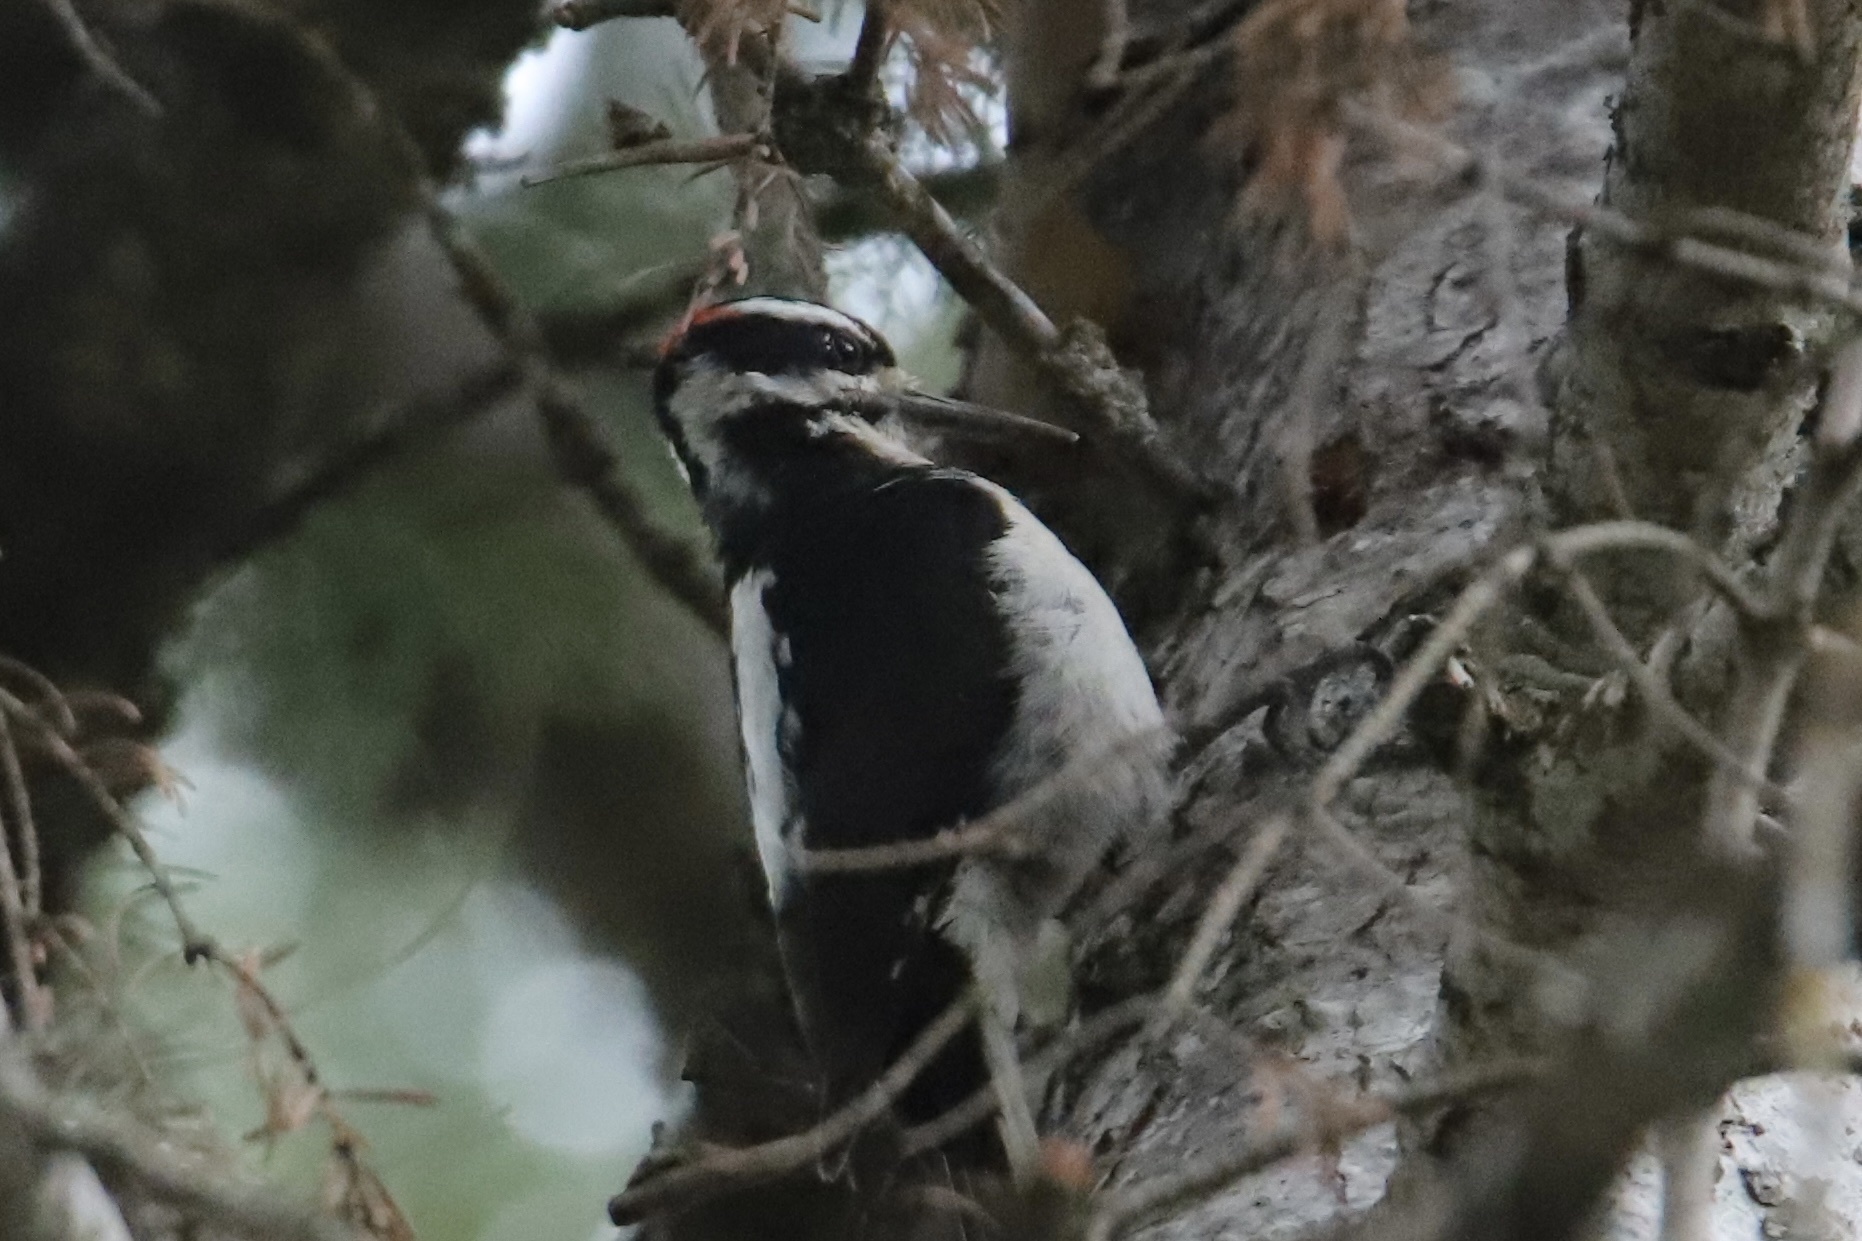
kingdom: Animalia
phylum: Chordata
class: Aves
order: Piciformes
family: Picidae
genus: Leuconotopicus
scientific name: Leuconotopicus villosus
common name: Hairy woodpecker
